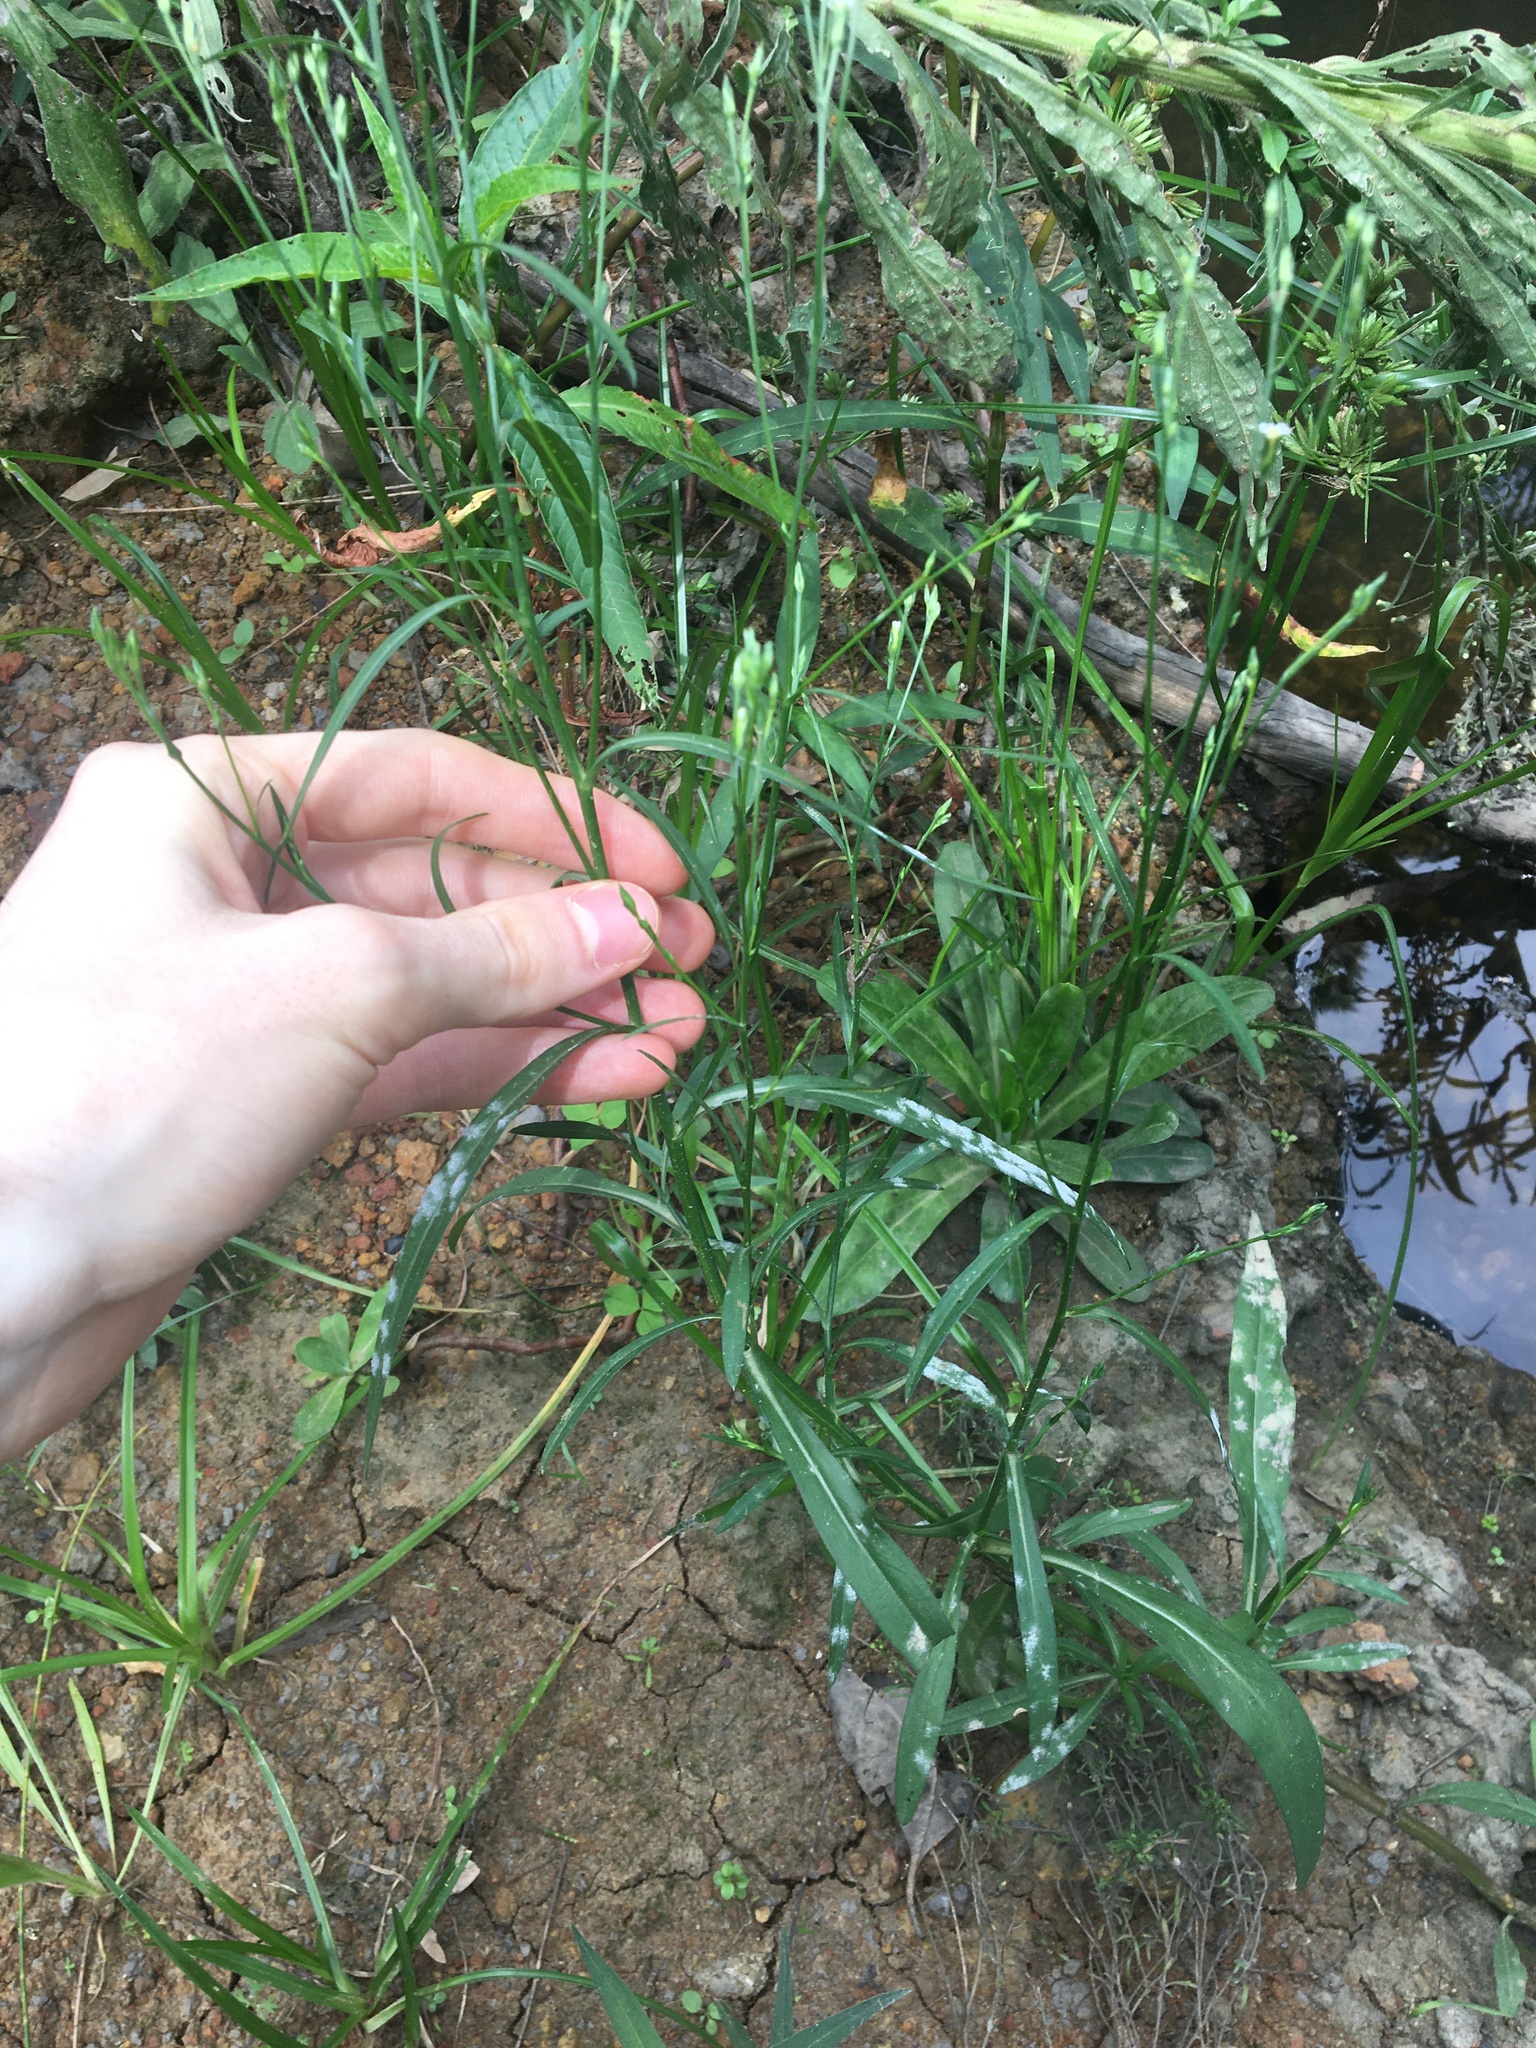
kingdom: Plantae
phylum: Tracheophyta
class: Magnoliopsida
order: Asterales
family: Asteraceae
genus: Symphyotrichum
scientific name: Symphyotrichum subulatum
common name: Annual saltmarsh aster
